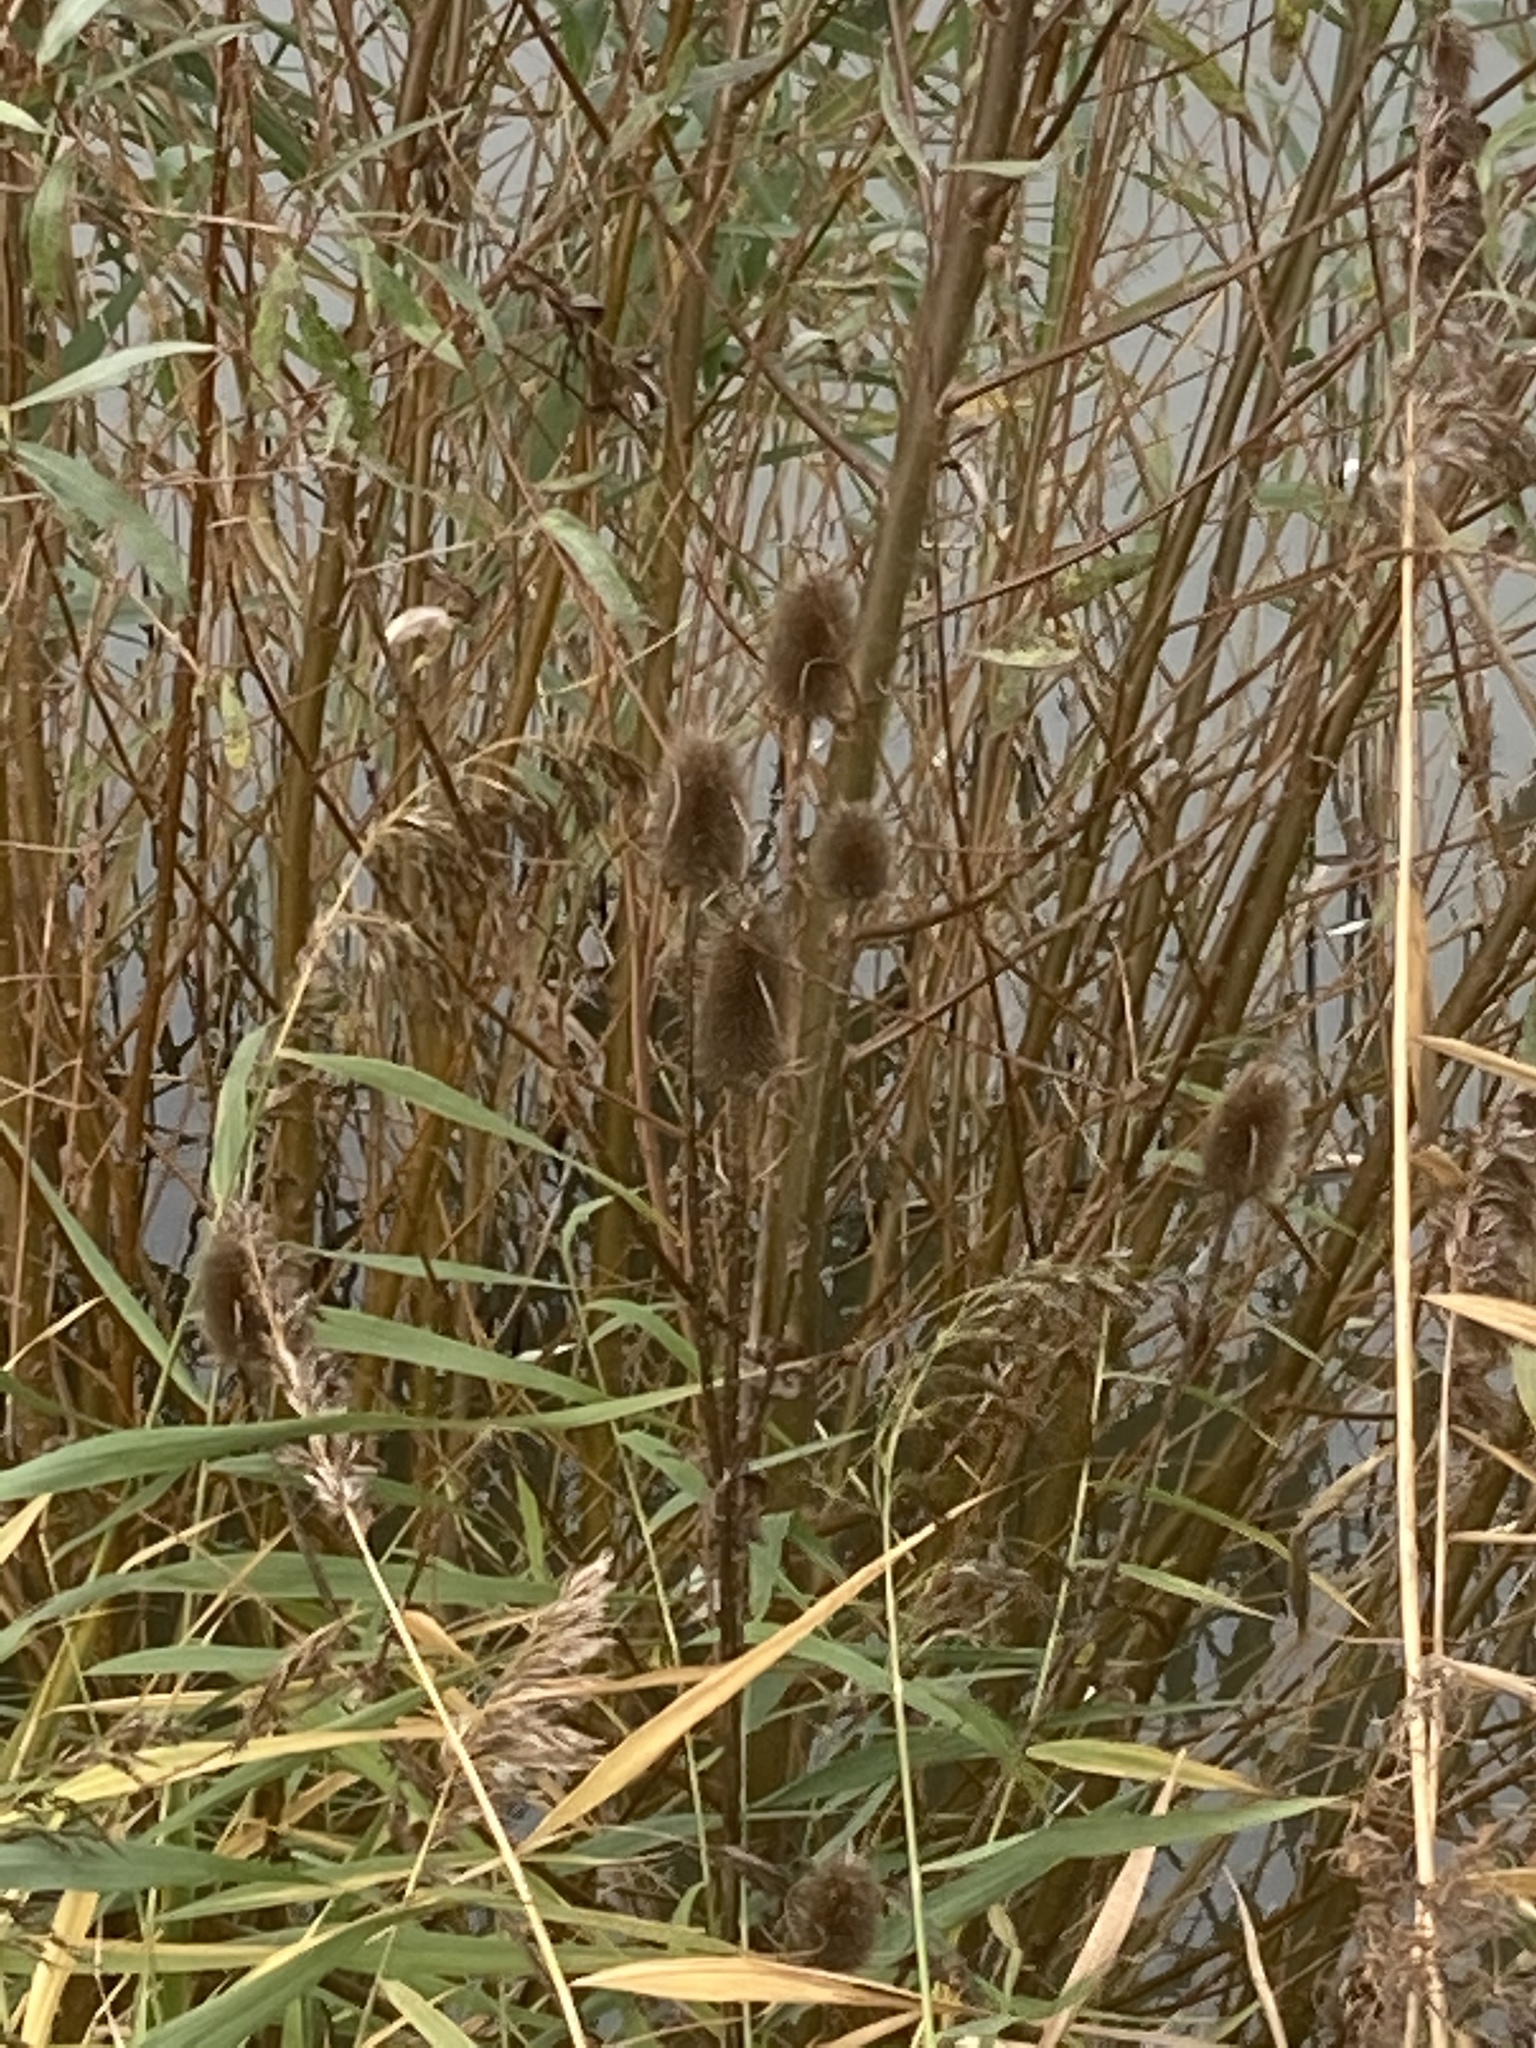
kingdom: Plantae
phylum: Tracheophyta
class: Magnoliopsida
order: Dipsacales
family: Caprifoliaceae
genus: Dipsacus
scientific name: Dipsacus fullonum
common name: Teasel
